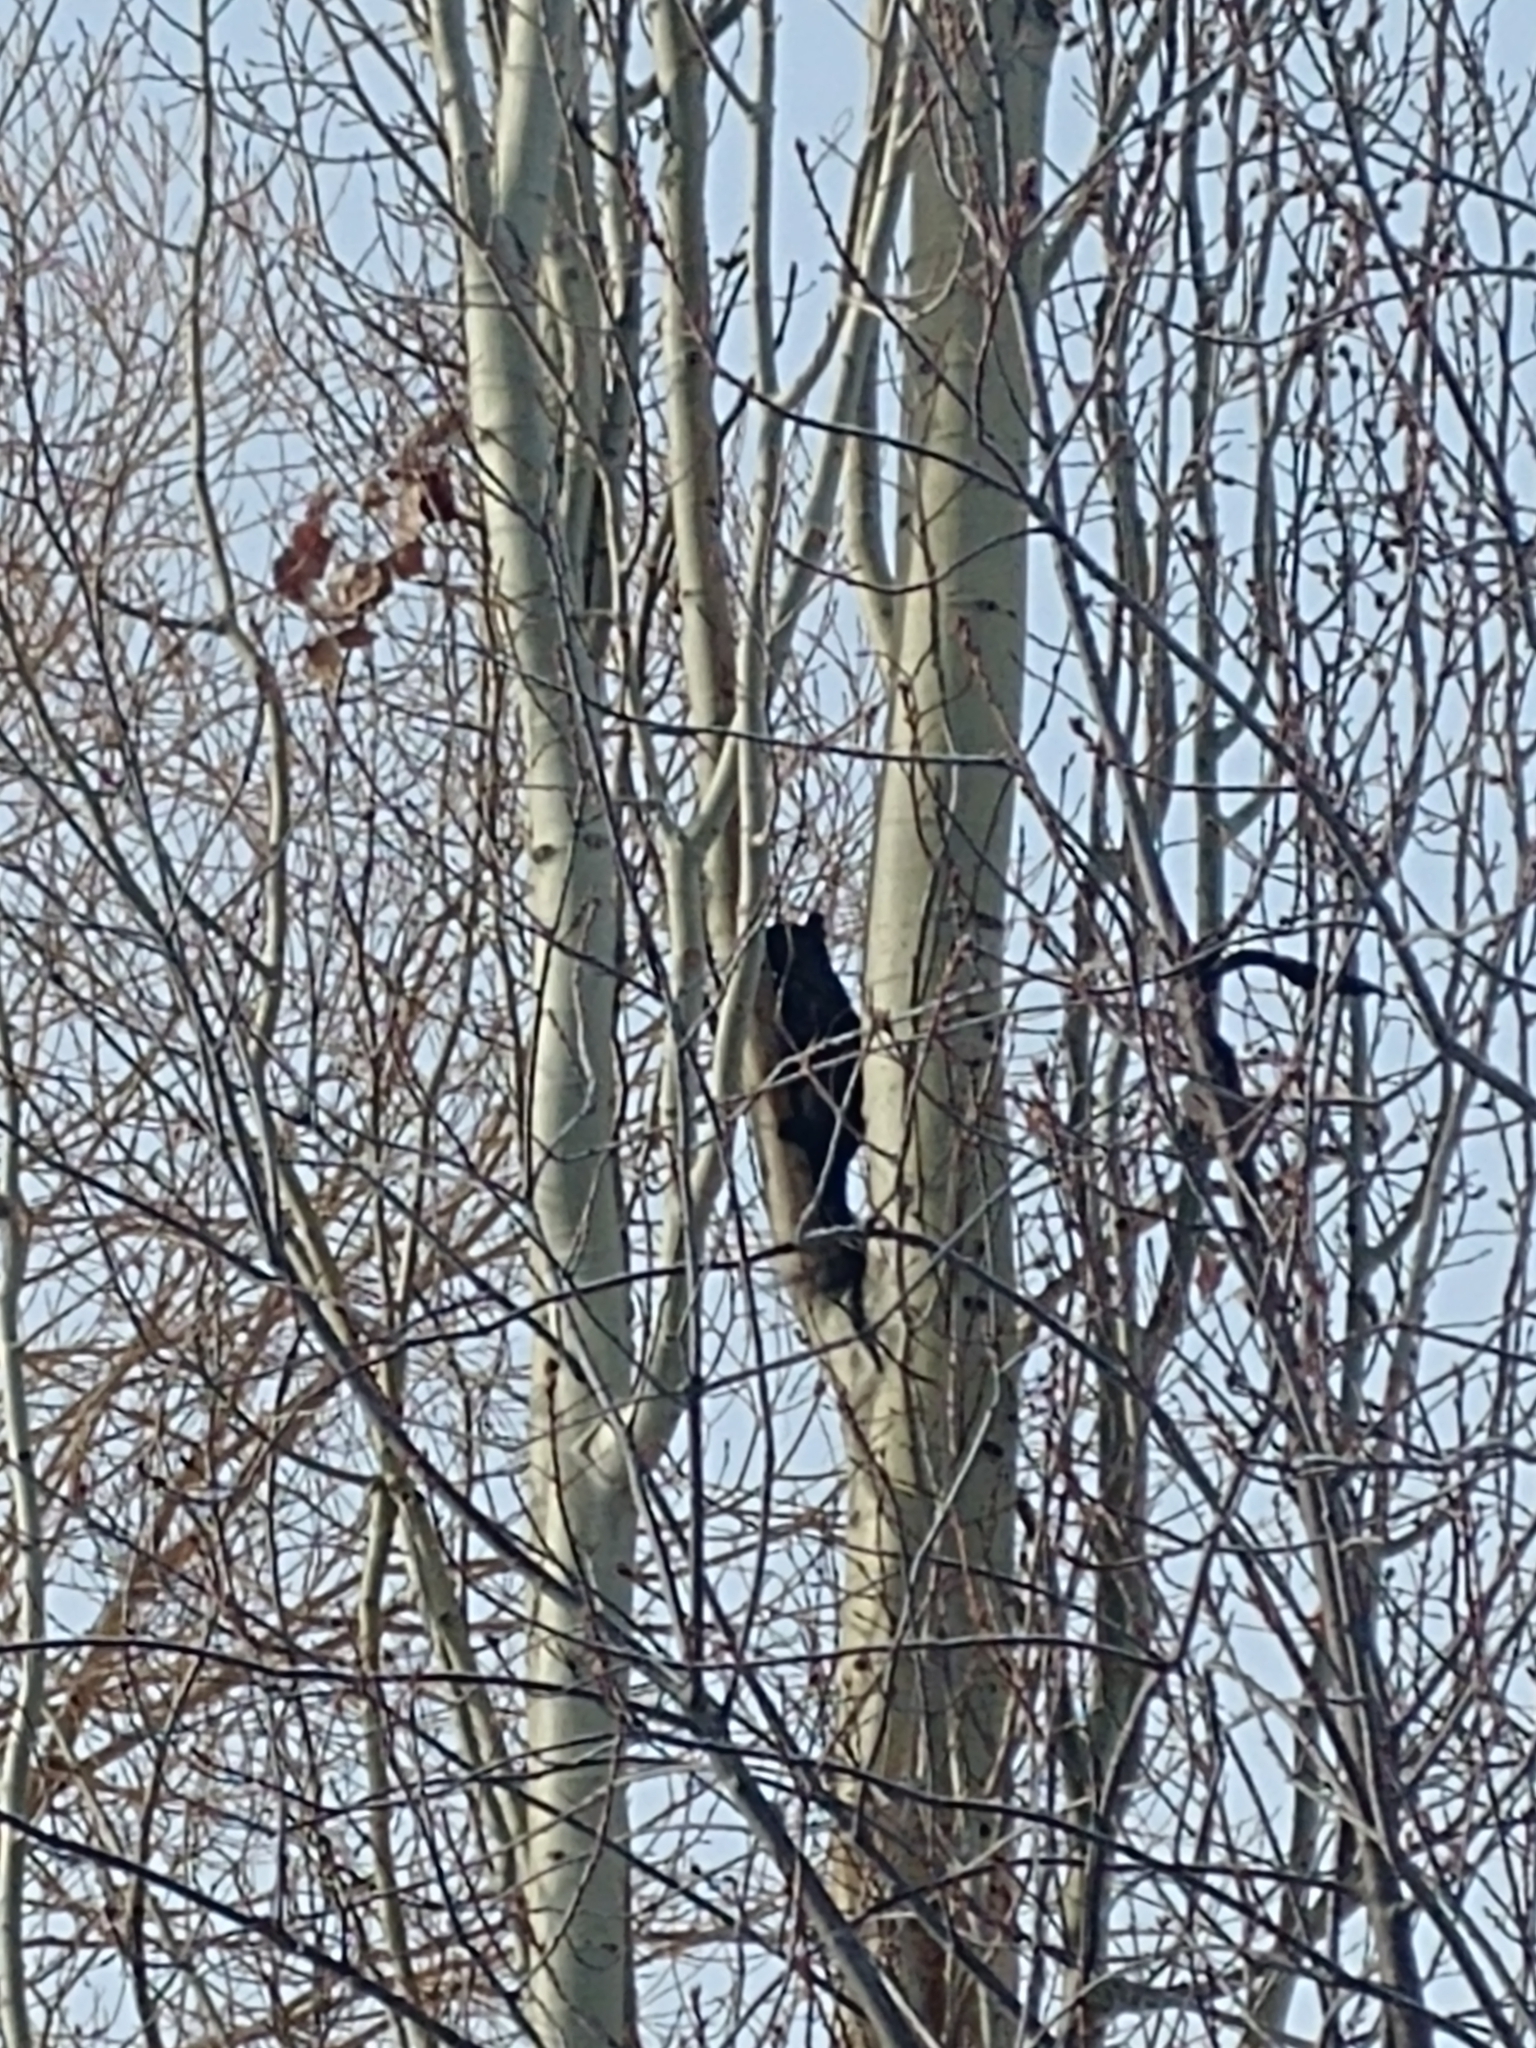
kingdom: Animalia
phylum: Chordata
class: Mammalia
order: Rodentia
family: Sciuridae
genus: Sciurus
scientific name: Sciurus carolinensis
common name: Eastern gray squirrel
